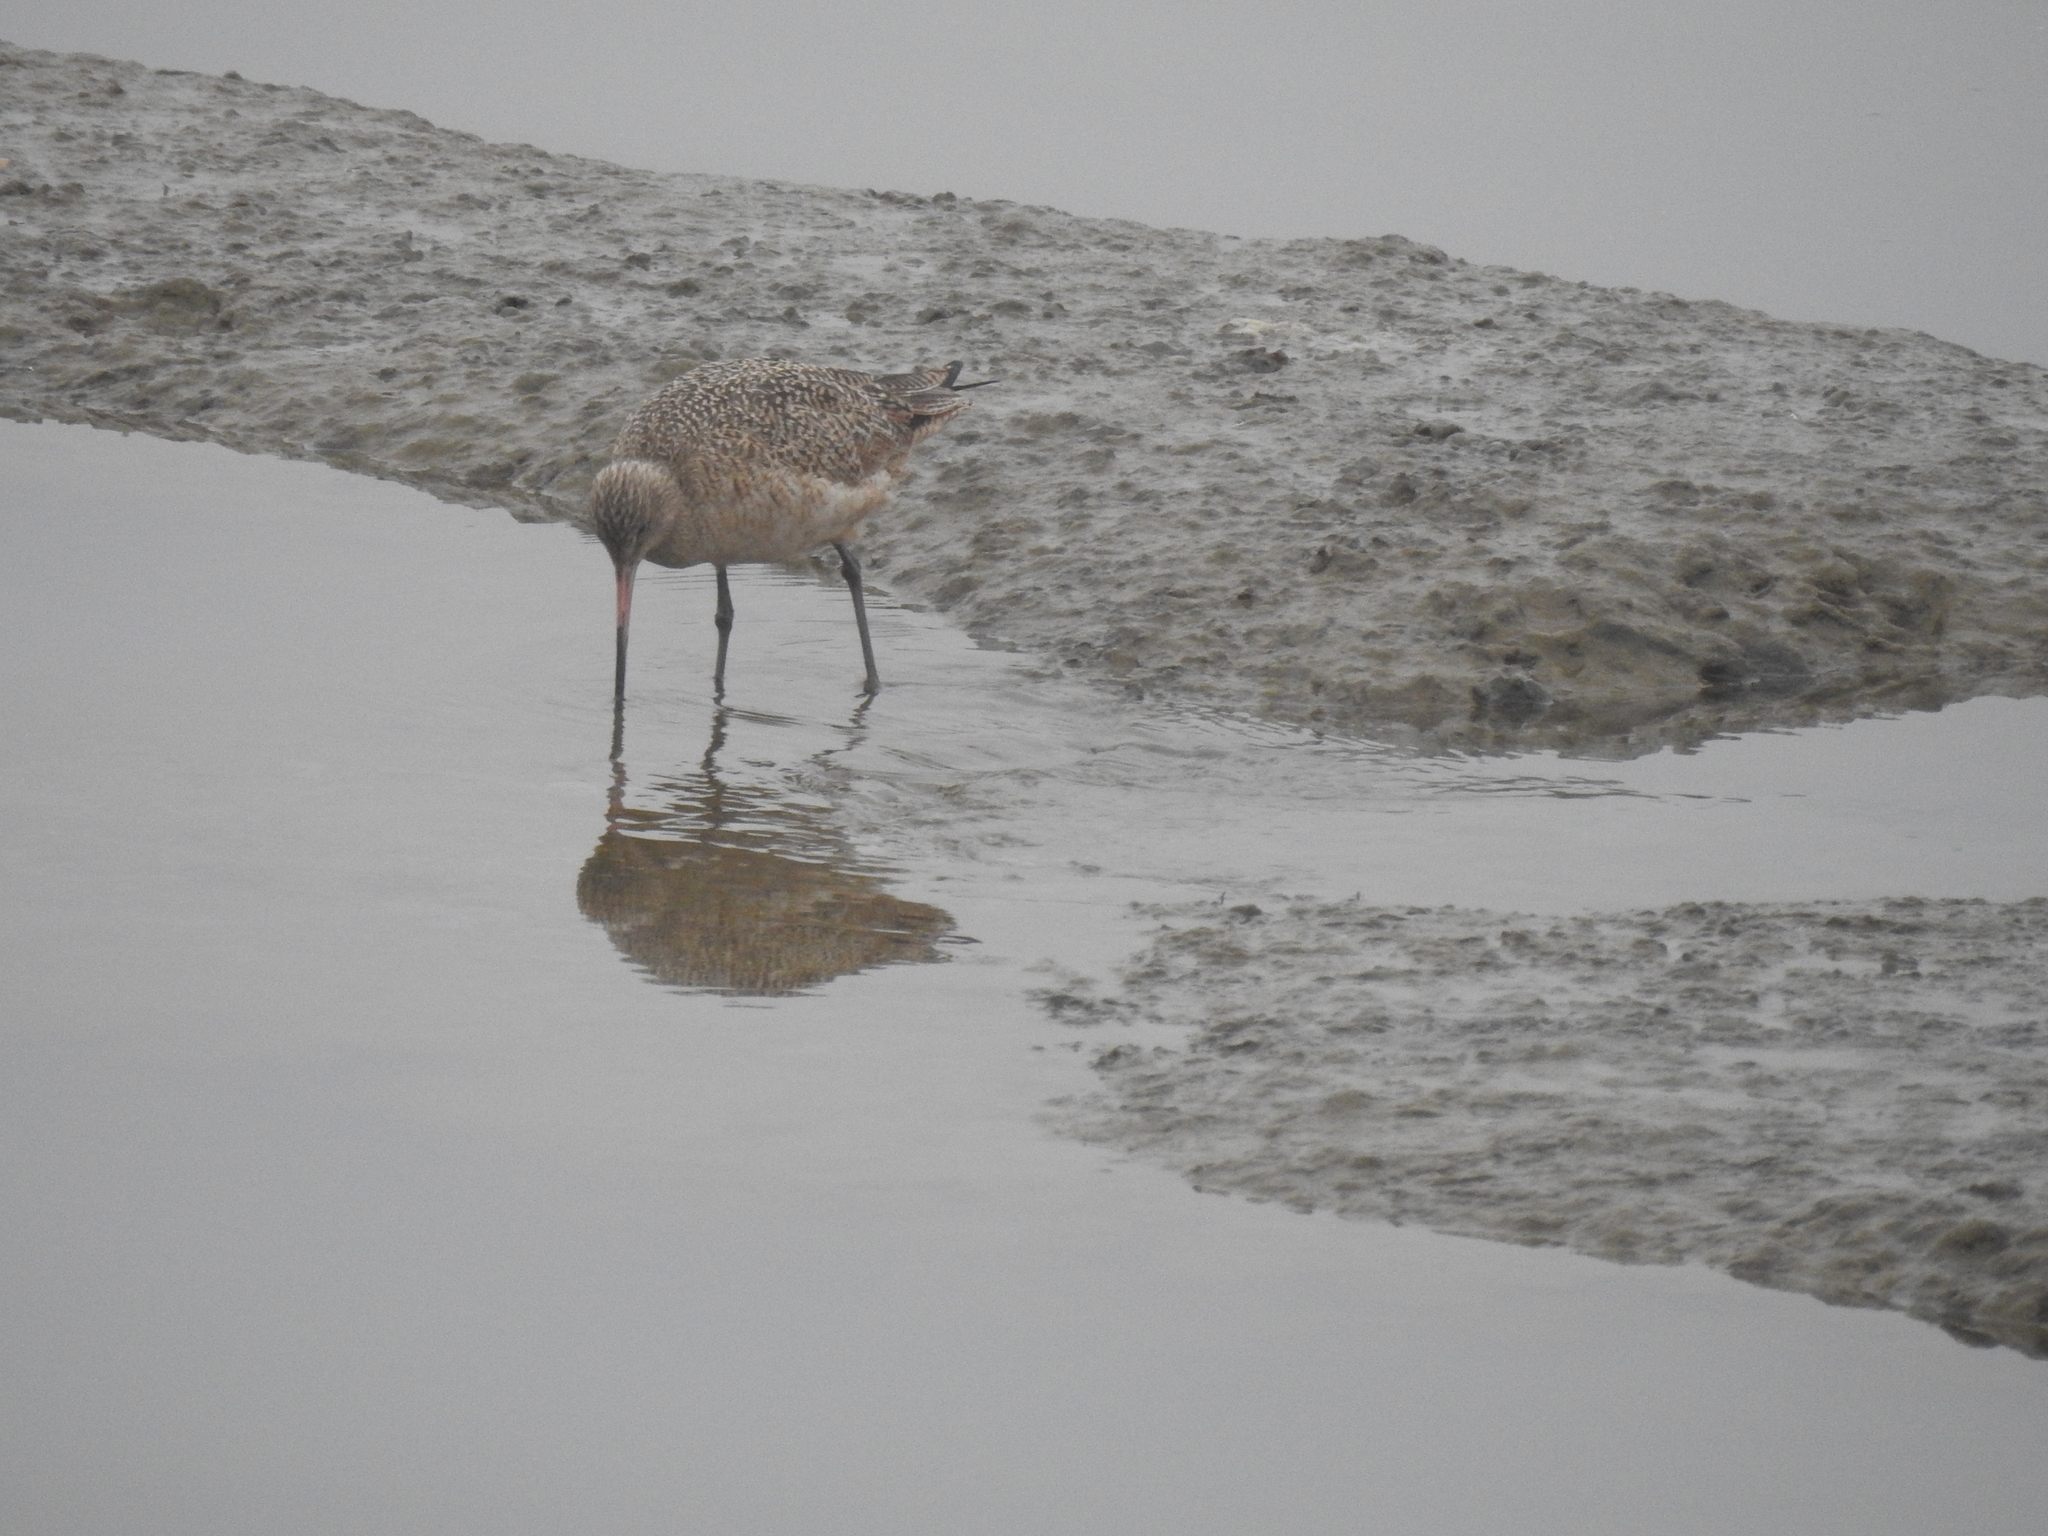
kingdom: Animalia
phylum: Chordata
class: Aves
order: Charadriiformes
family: Scolopacidae
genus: Limosa
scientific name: Limosa fedoa
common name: Marbled godwit
